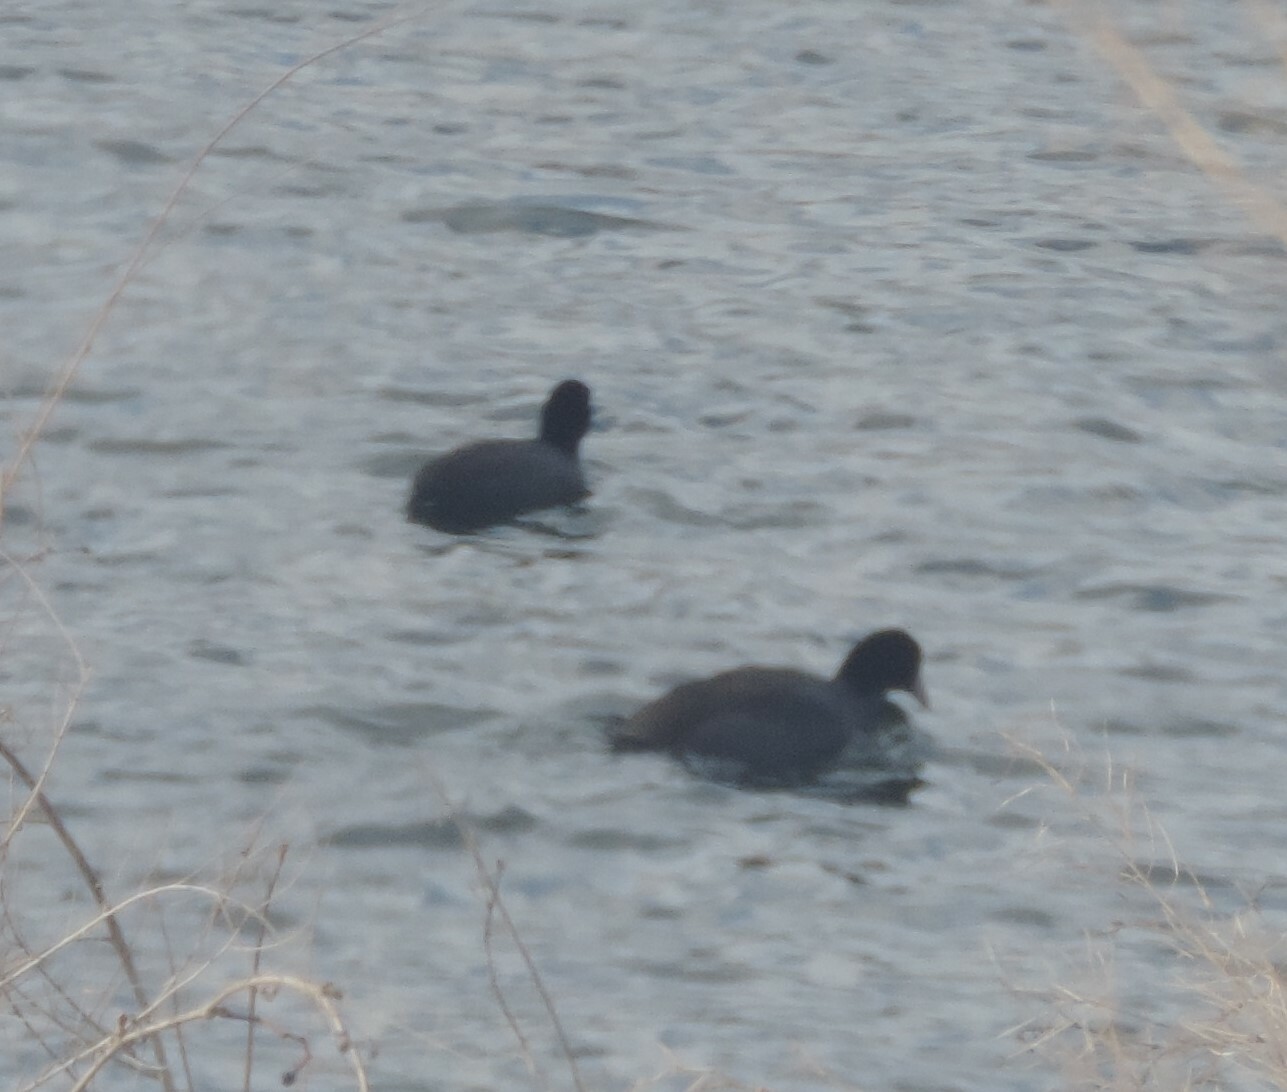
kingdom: Animalia
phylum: Chordata
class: Aves
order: Gruiformes
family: Rallidae
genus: Fulica
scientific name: Fulica americana
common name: American coot
